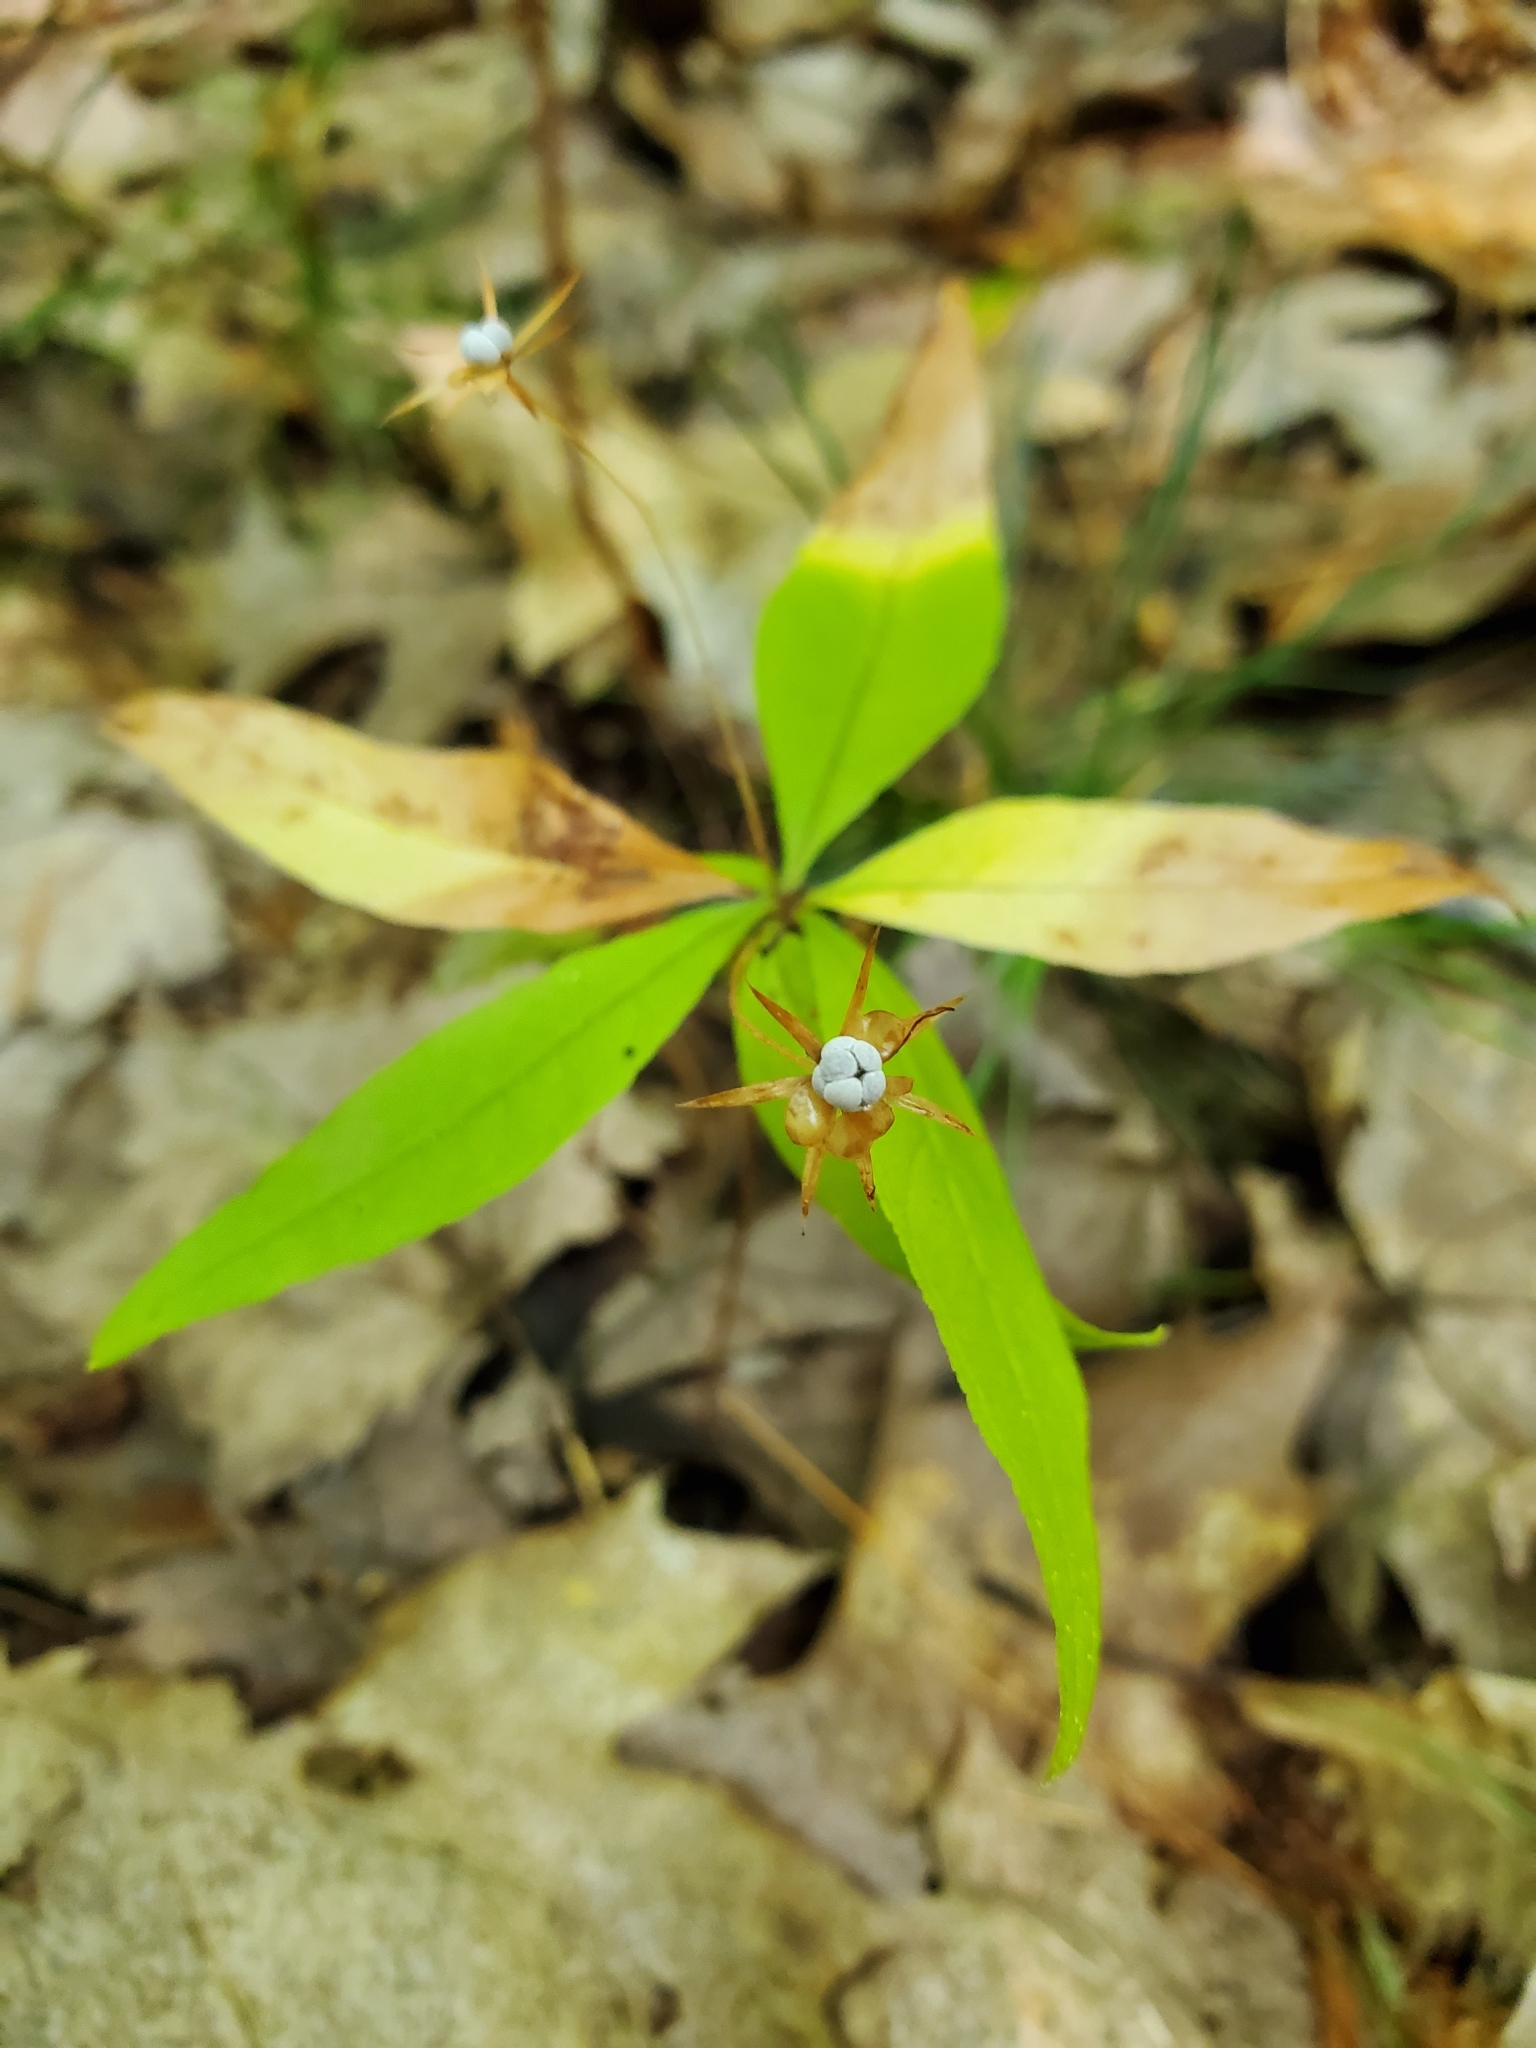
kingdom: Plantae
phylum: Tracheophyta
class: Magnoliopsida
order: Ericales
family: Primulaceae
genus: Lysimachia
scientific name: Lysimachia borealis
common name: American starflower
